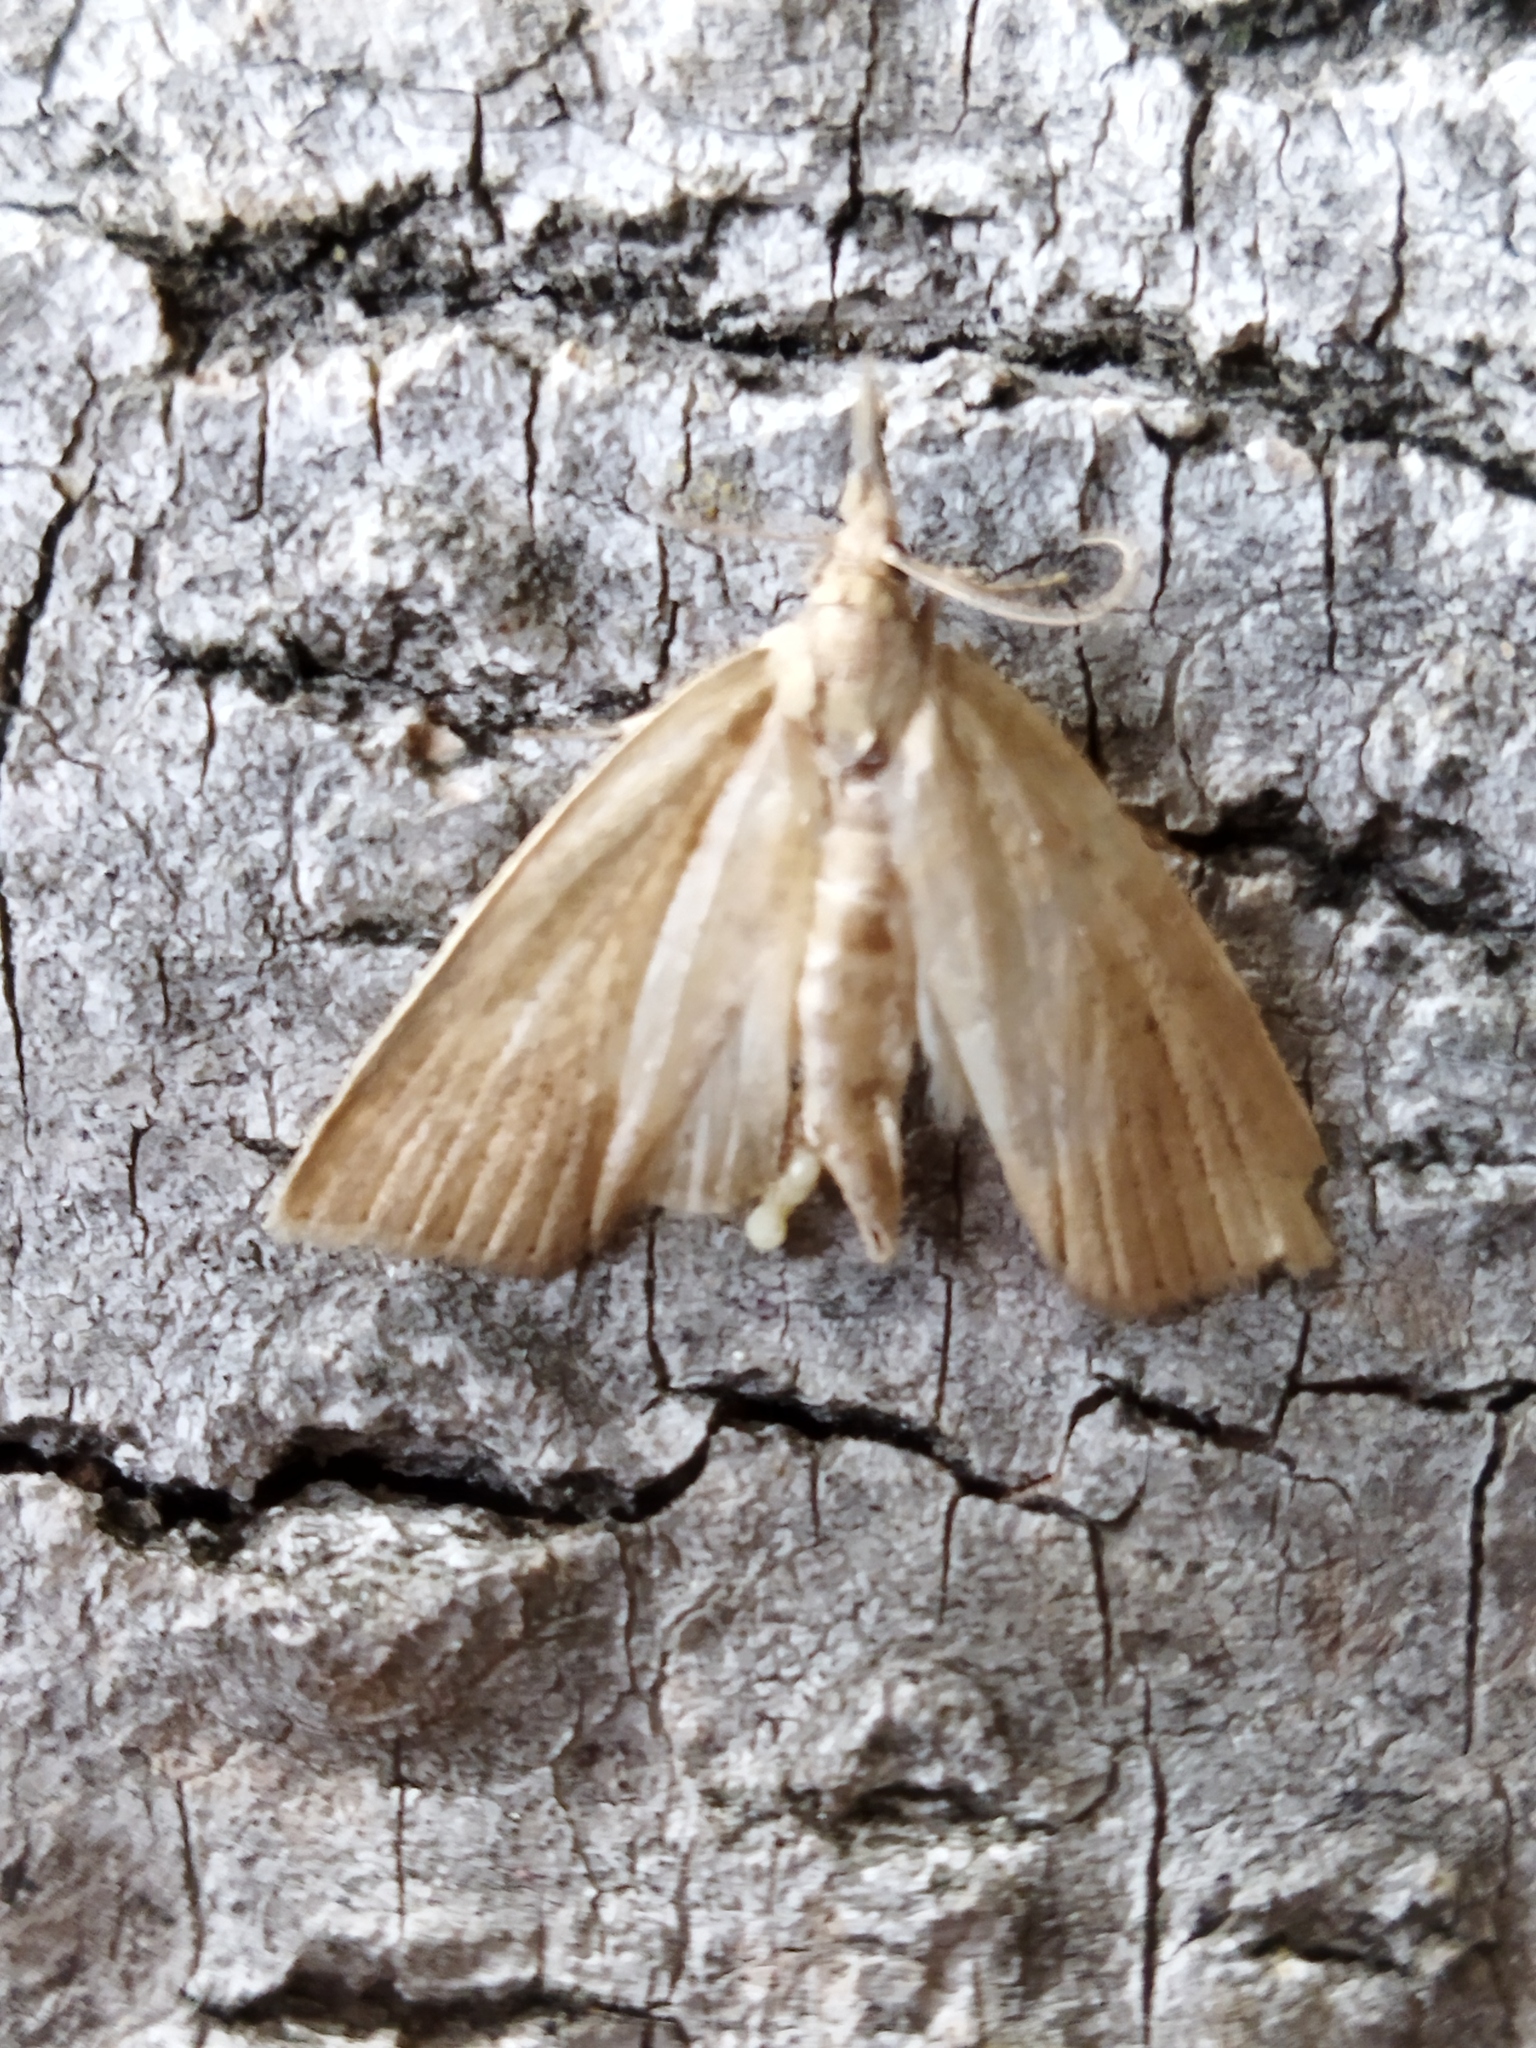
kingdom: Animalia
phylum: Arthropoda
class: Insecta
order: Lepidoptera
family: Crambidae
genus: Calamotropha
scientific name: Calamotropha paludella
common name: Bulrush veneer
